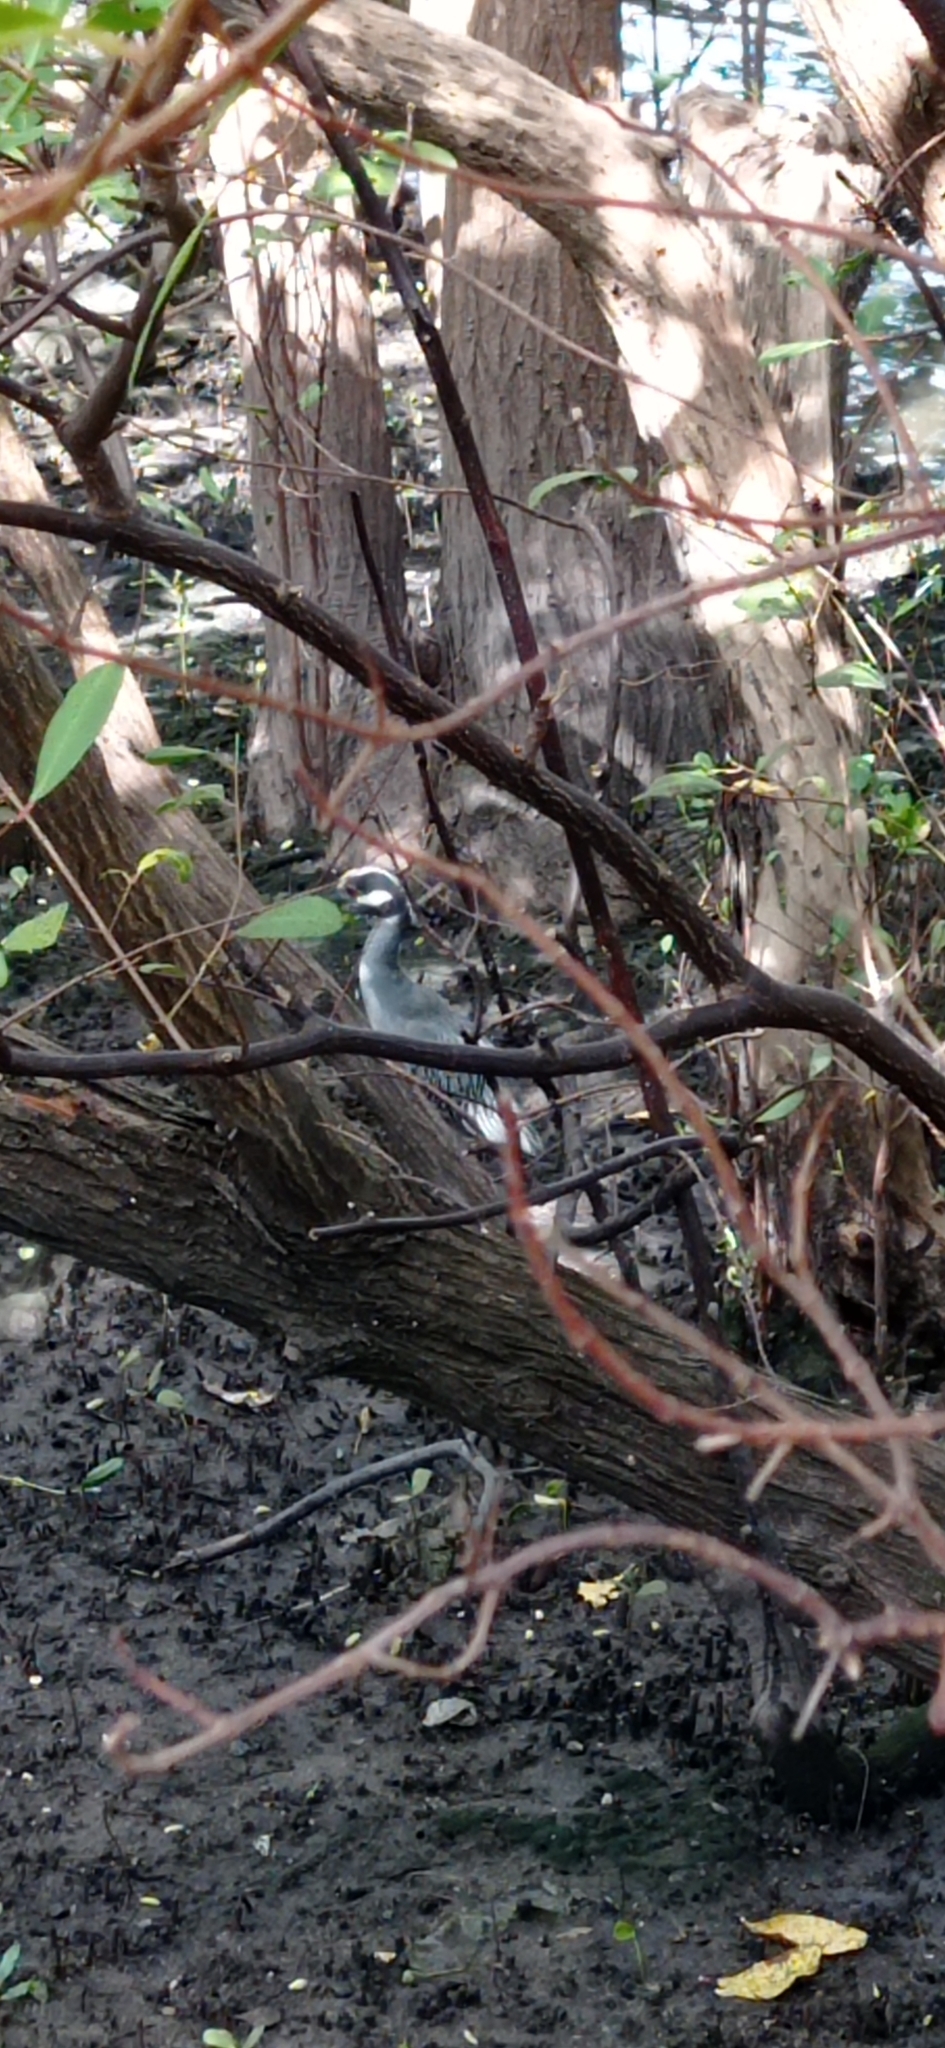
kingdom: Animalia
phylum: Chordata
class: Aves
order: Pelecaniformes
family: Ardeidae
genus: Nyctanassa
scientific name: Nyctanassa violacea
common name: Yellow-crowned night heron
